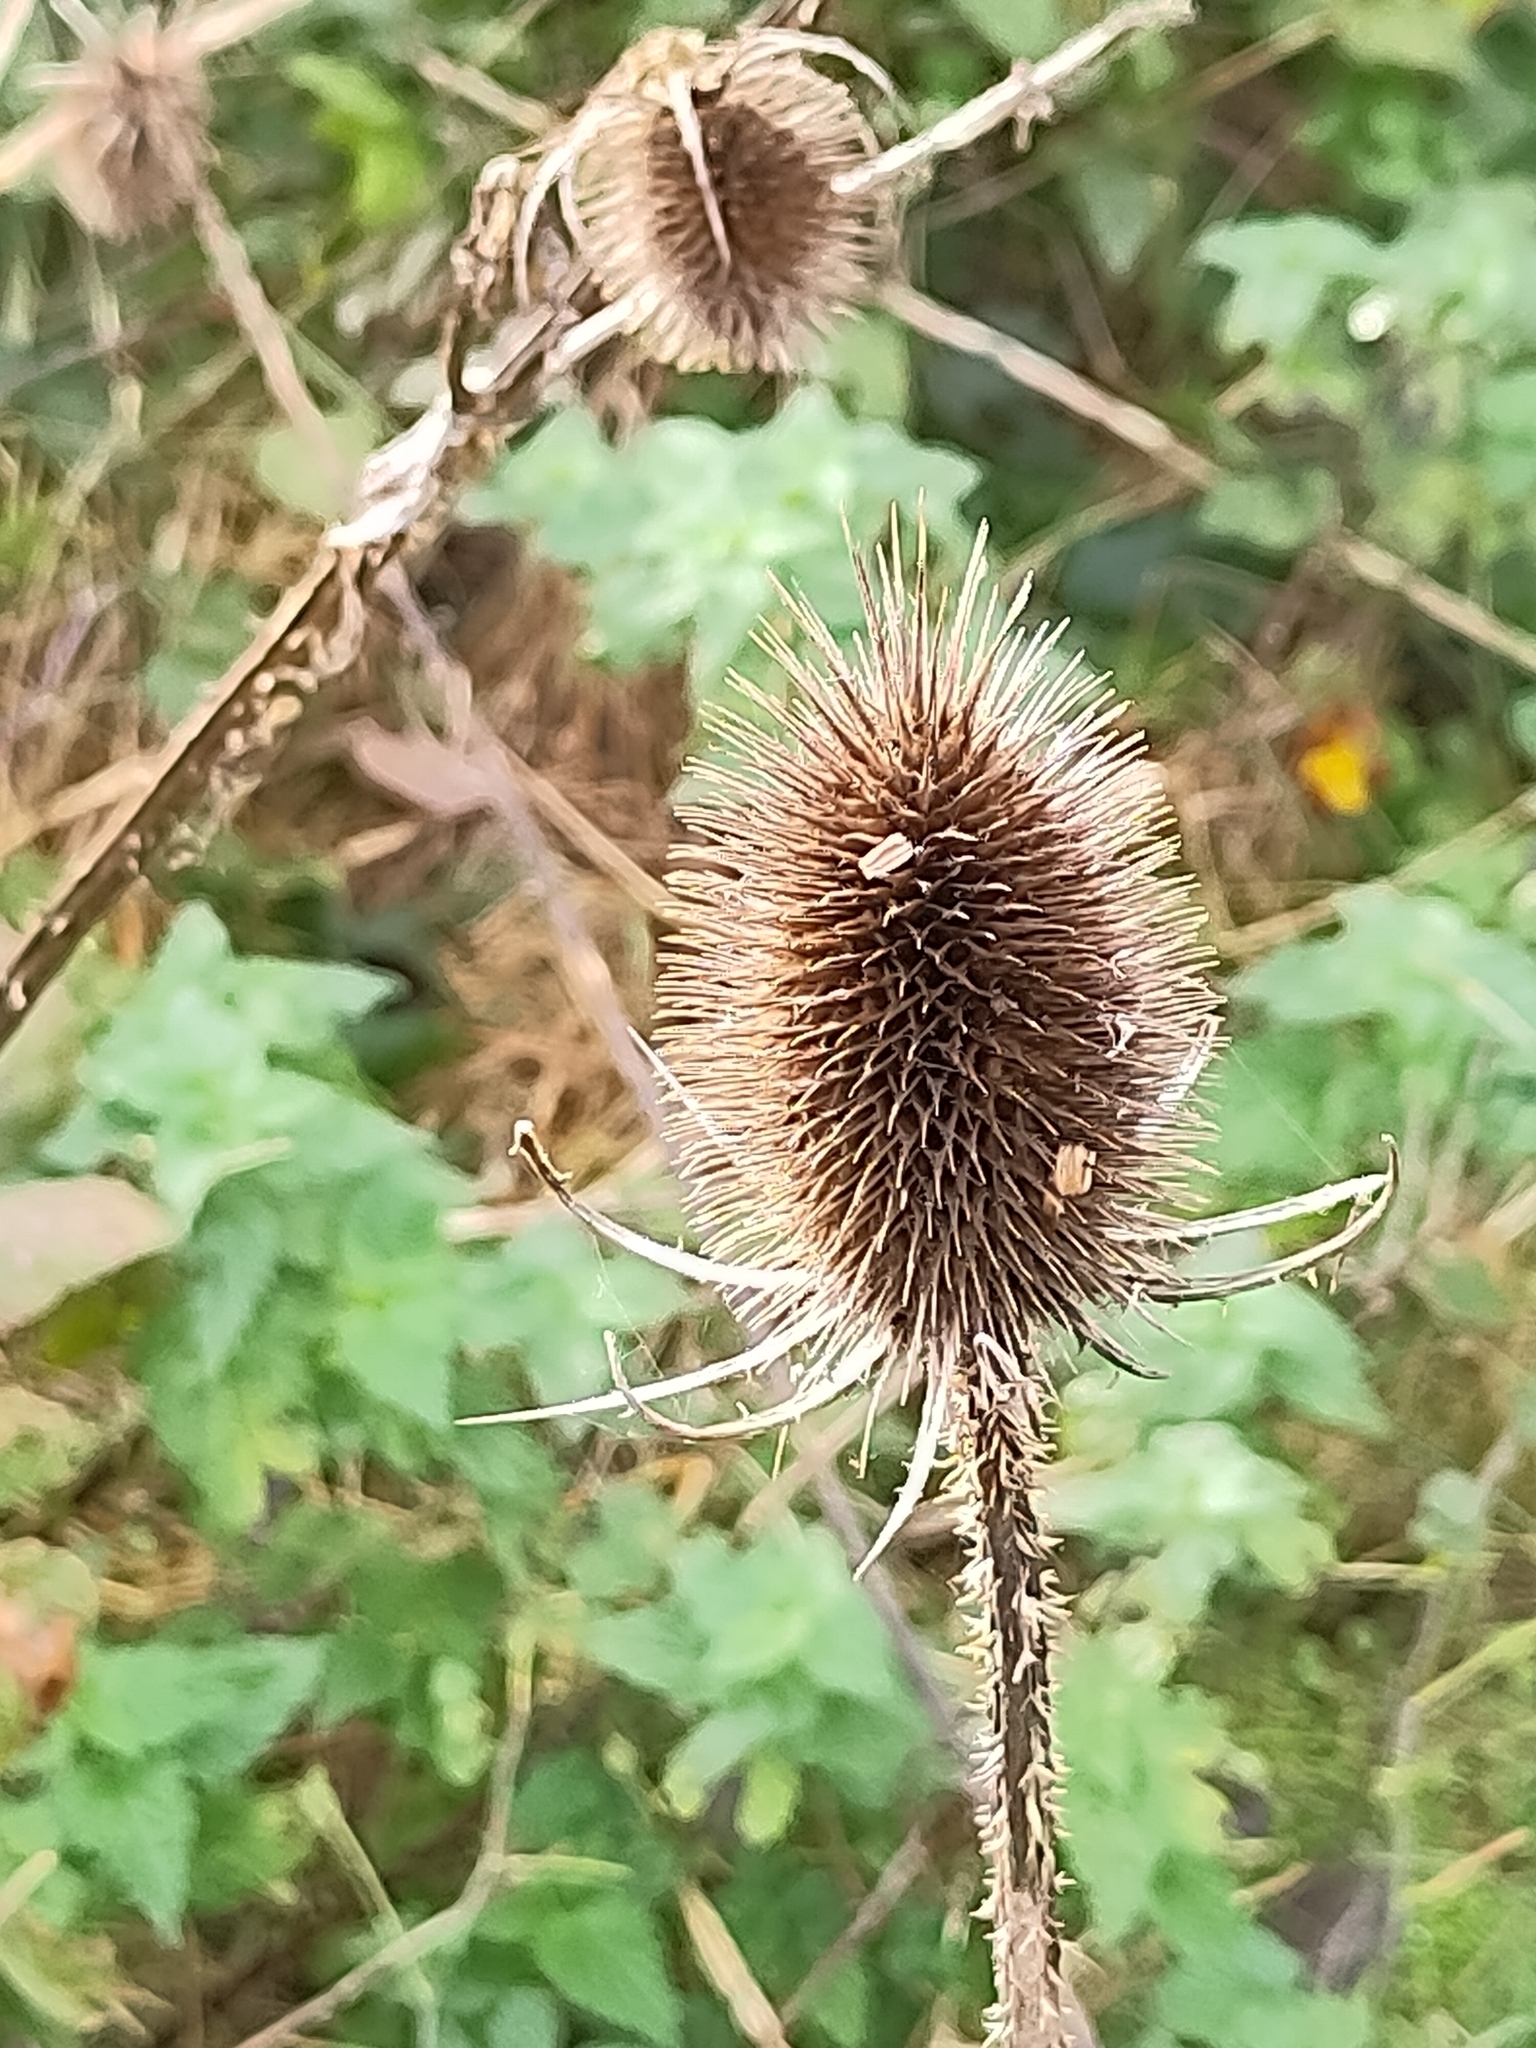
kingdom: Plantae
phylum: Tracheophyta
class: Magnoliopsida
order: Dipsacales
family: Caprifoliaceae
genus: Dipsacus
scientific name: Dipsacus fullonum
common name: Teasel
